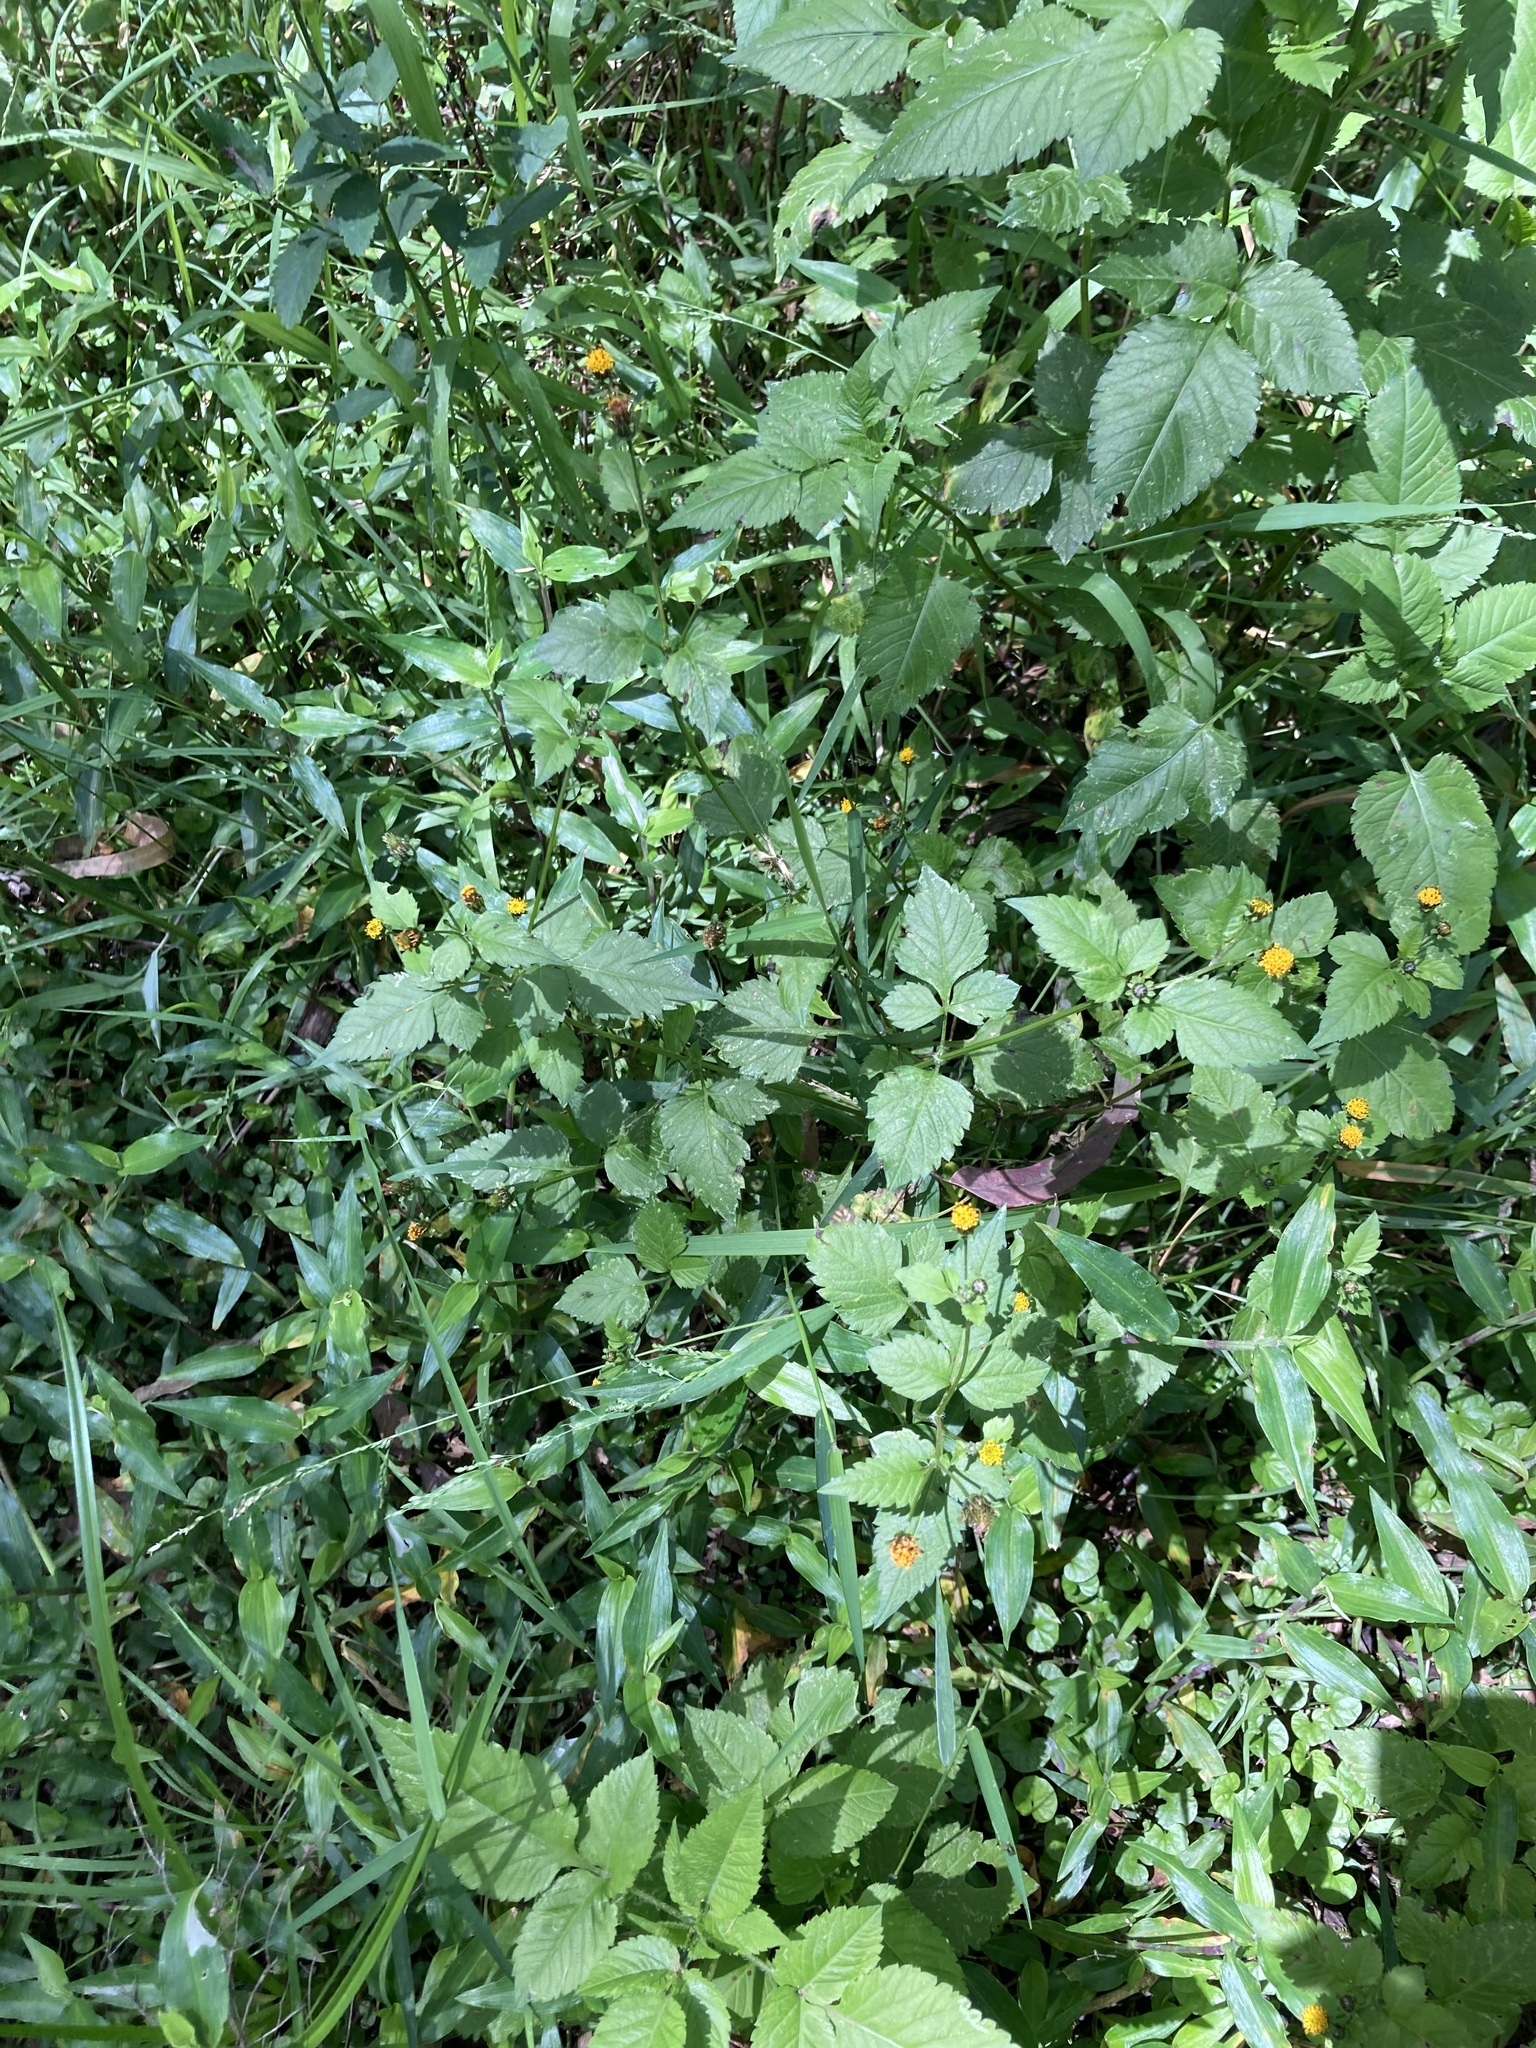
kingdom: Plantae
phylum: Tracheophyta
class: Magnoliopsida
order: Asterales
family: Asteraceae
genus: Bidens
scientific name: Bidens pilosa
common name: Black-jack
